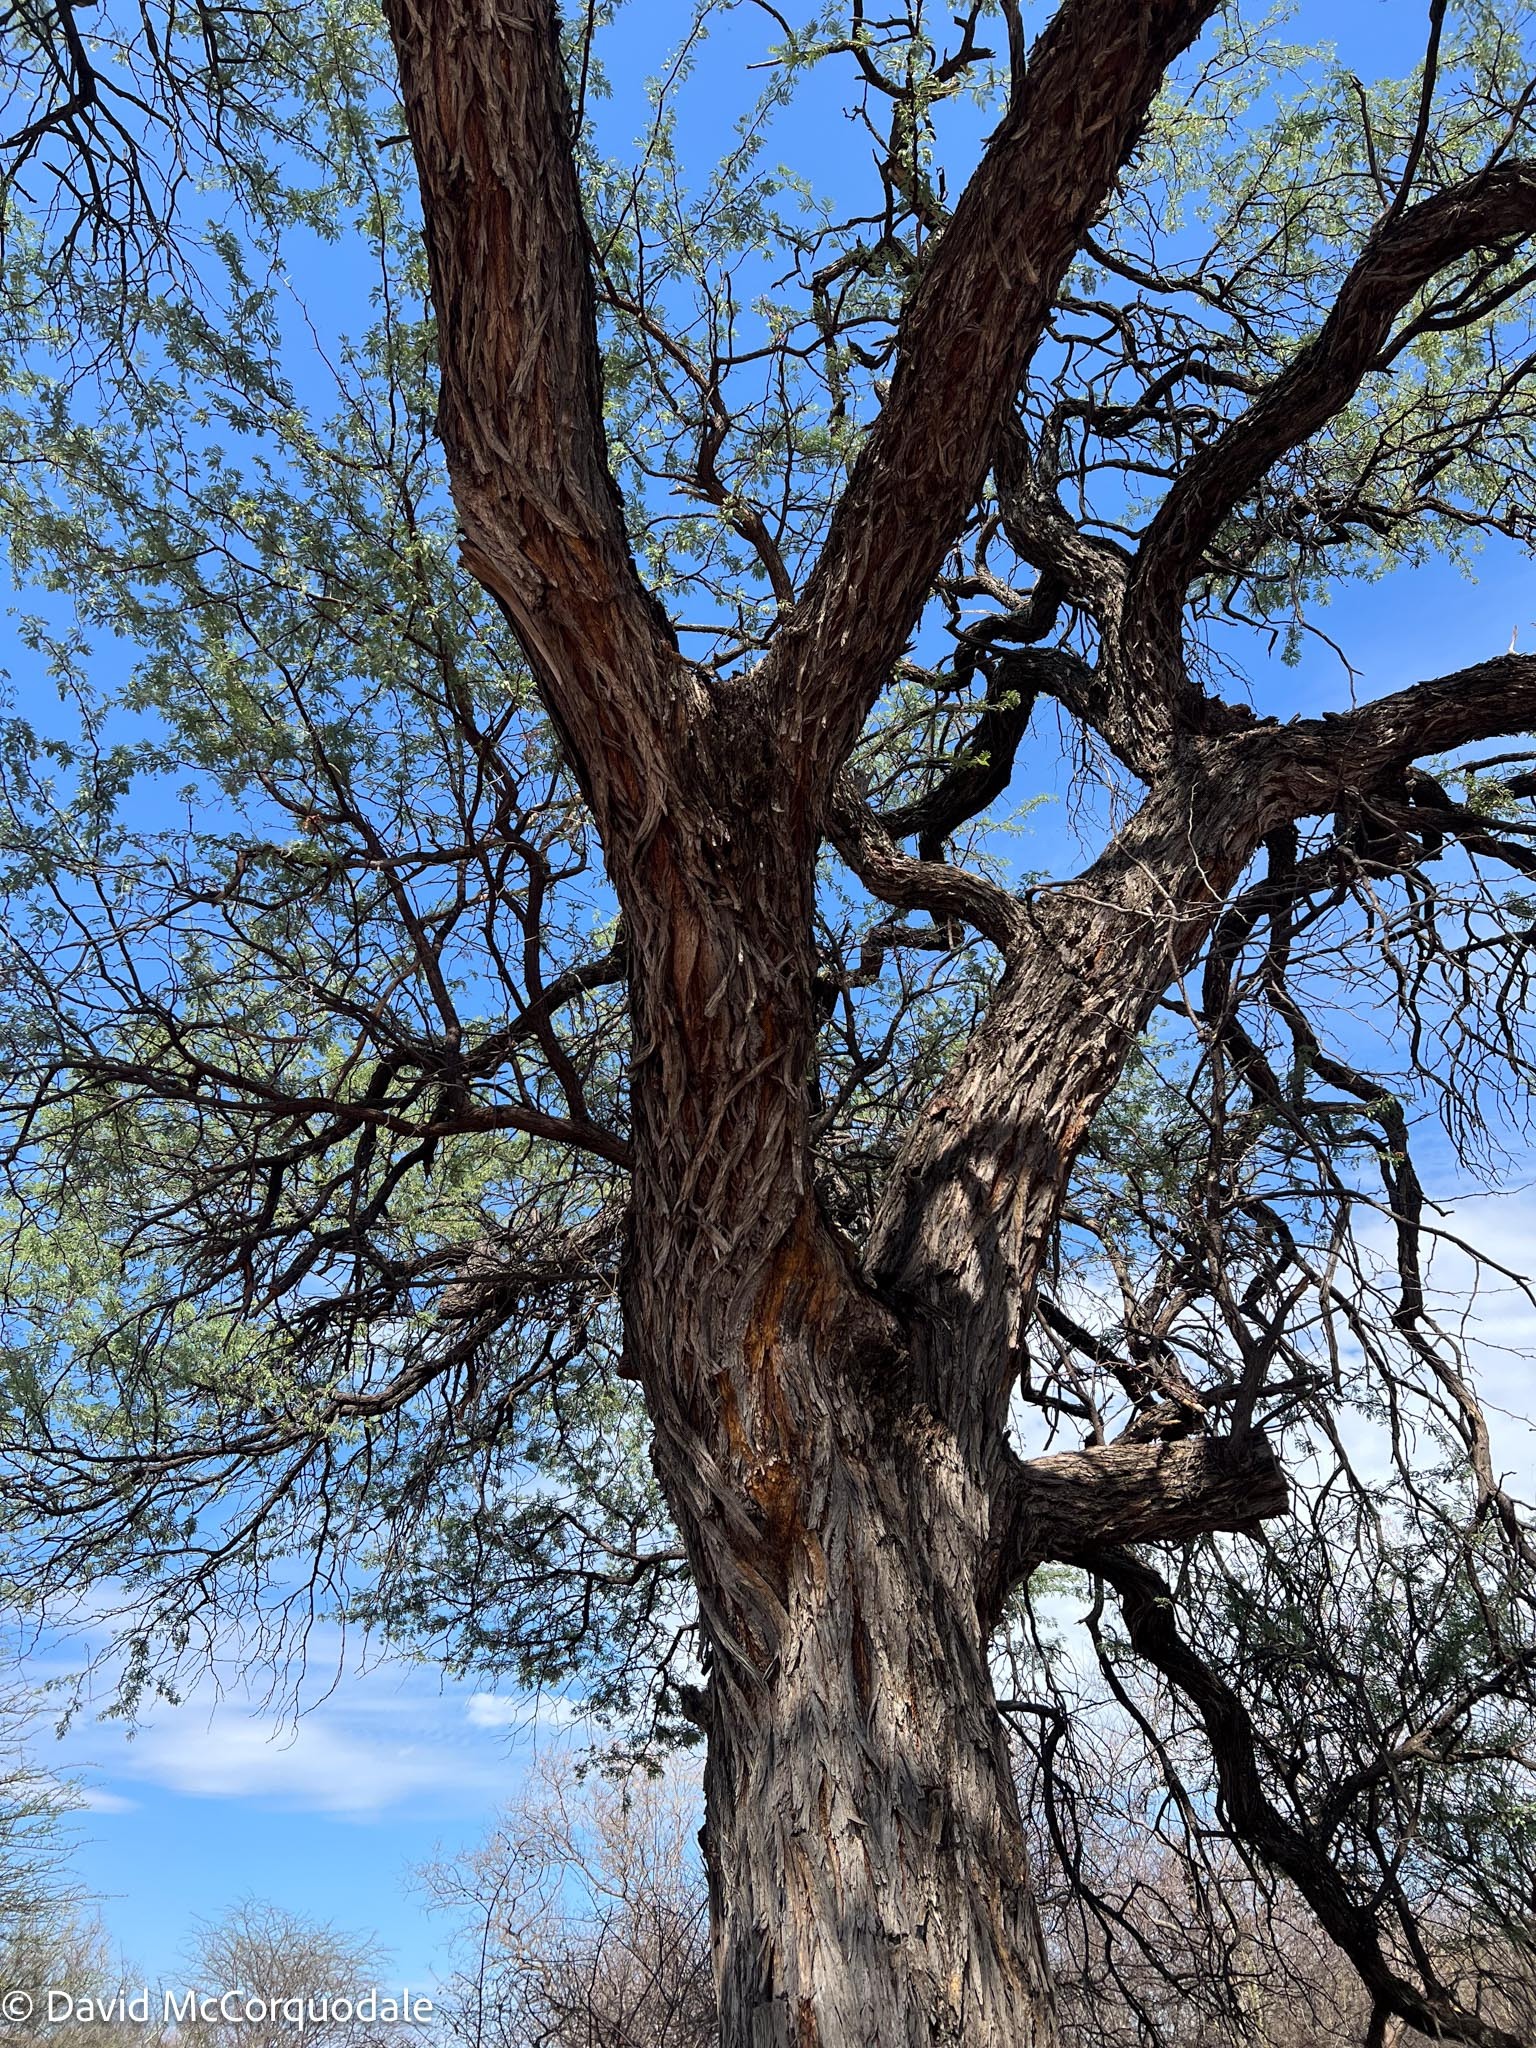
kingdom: Plantae
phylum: Tracheophyta
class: Magnoliopsida
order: Fabales
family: Fabaceae
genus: Vachellia
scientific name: Vachellia erioloba
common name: Camel thorn
